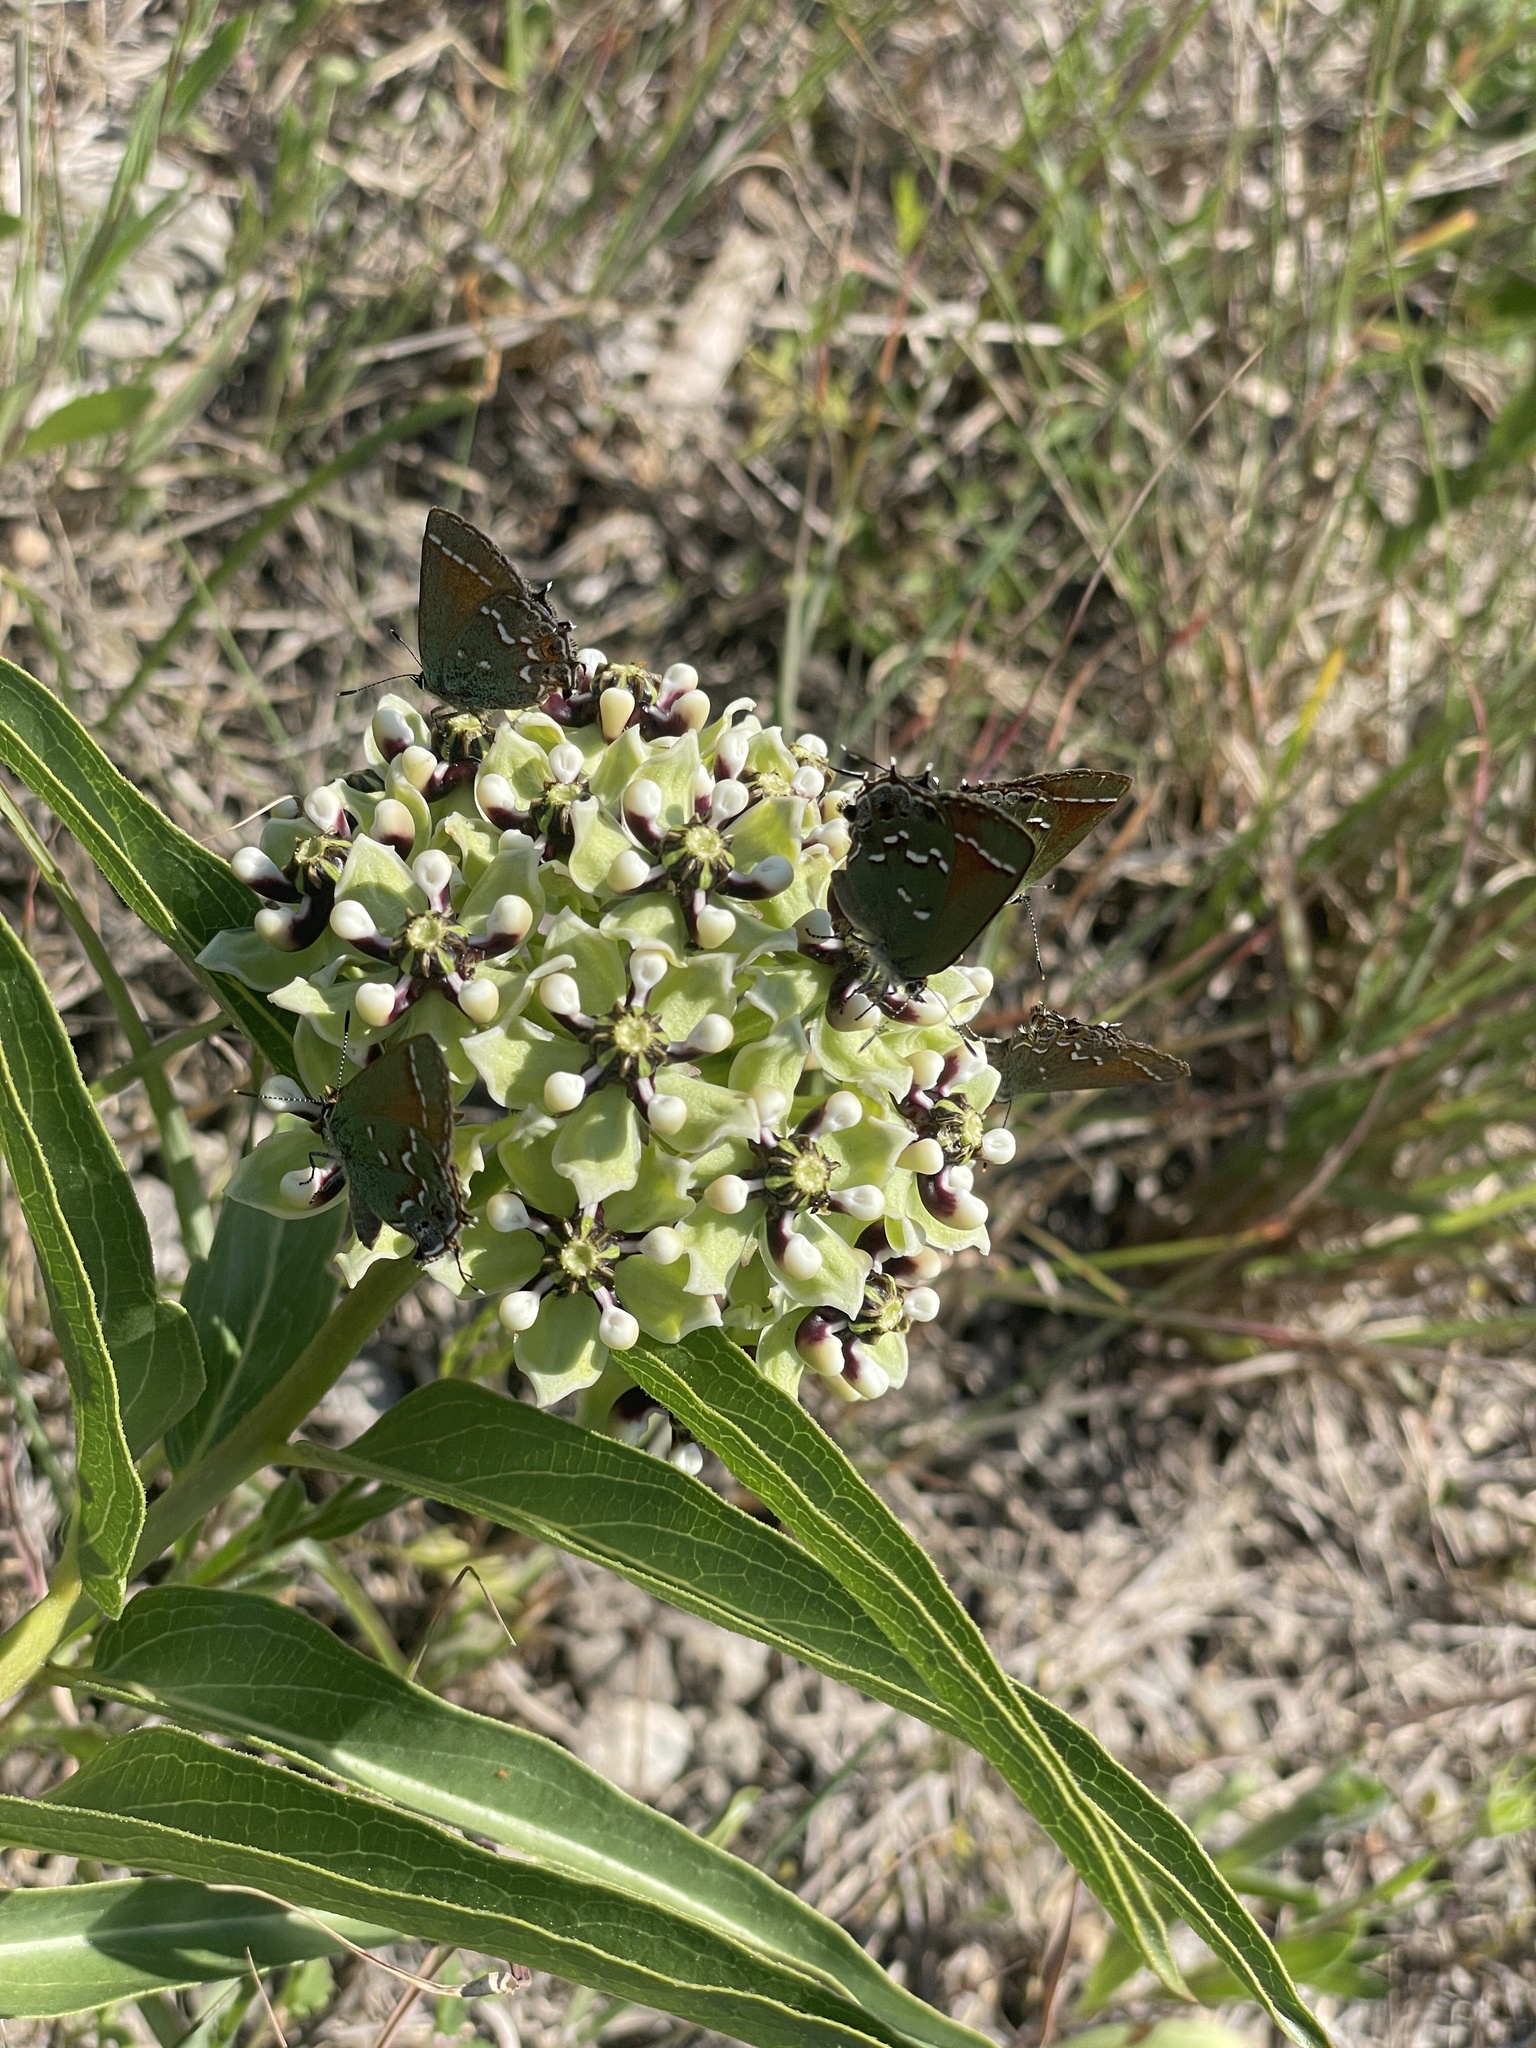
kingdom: Animalia
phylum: Arthropoda
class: Insecta
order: Lepidoptera
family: Lycaenidae
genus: Mitoura
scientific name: Mitoura gryneus
